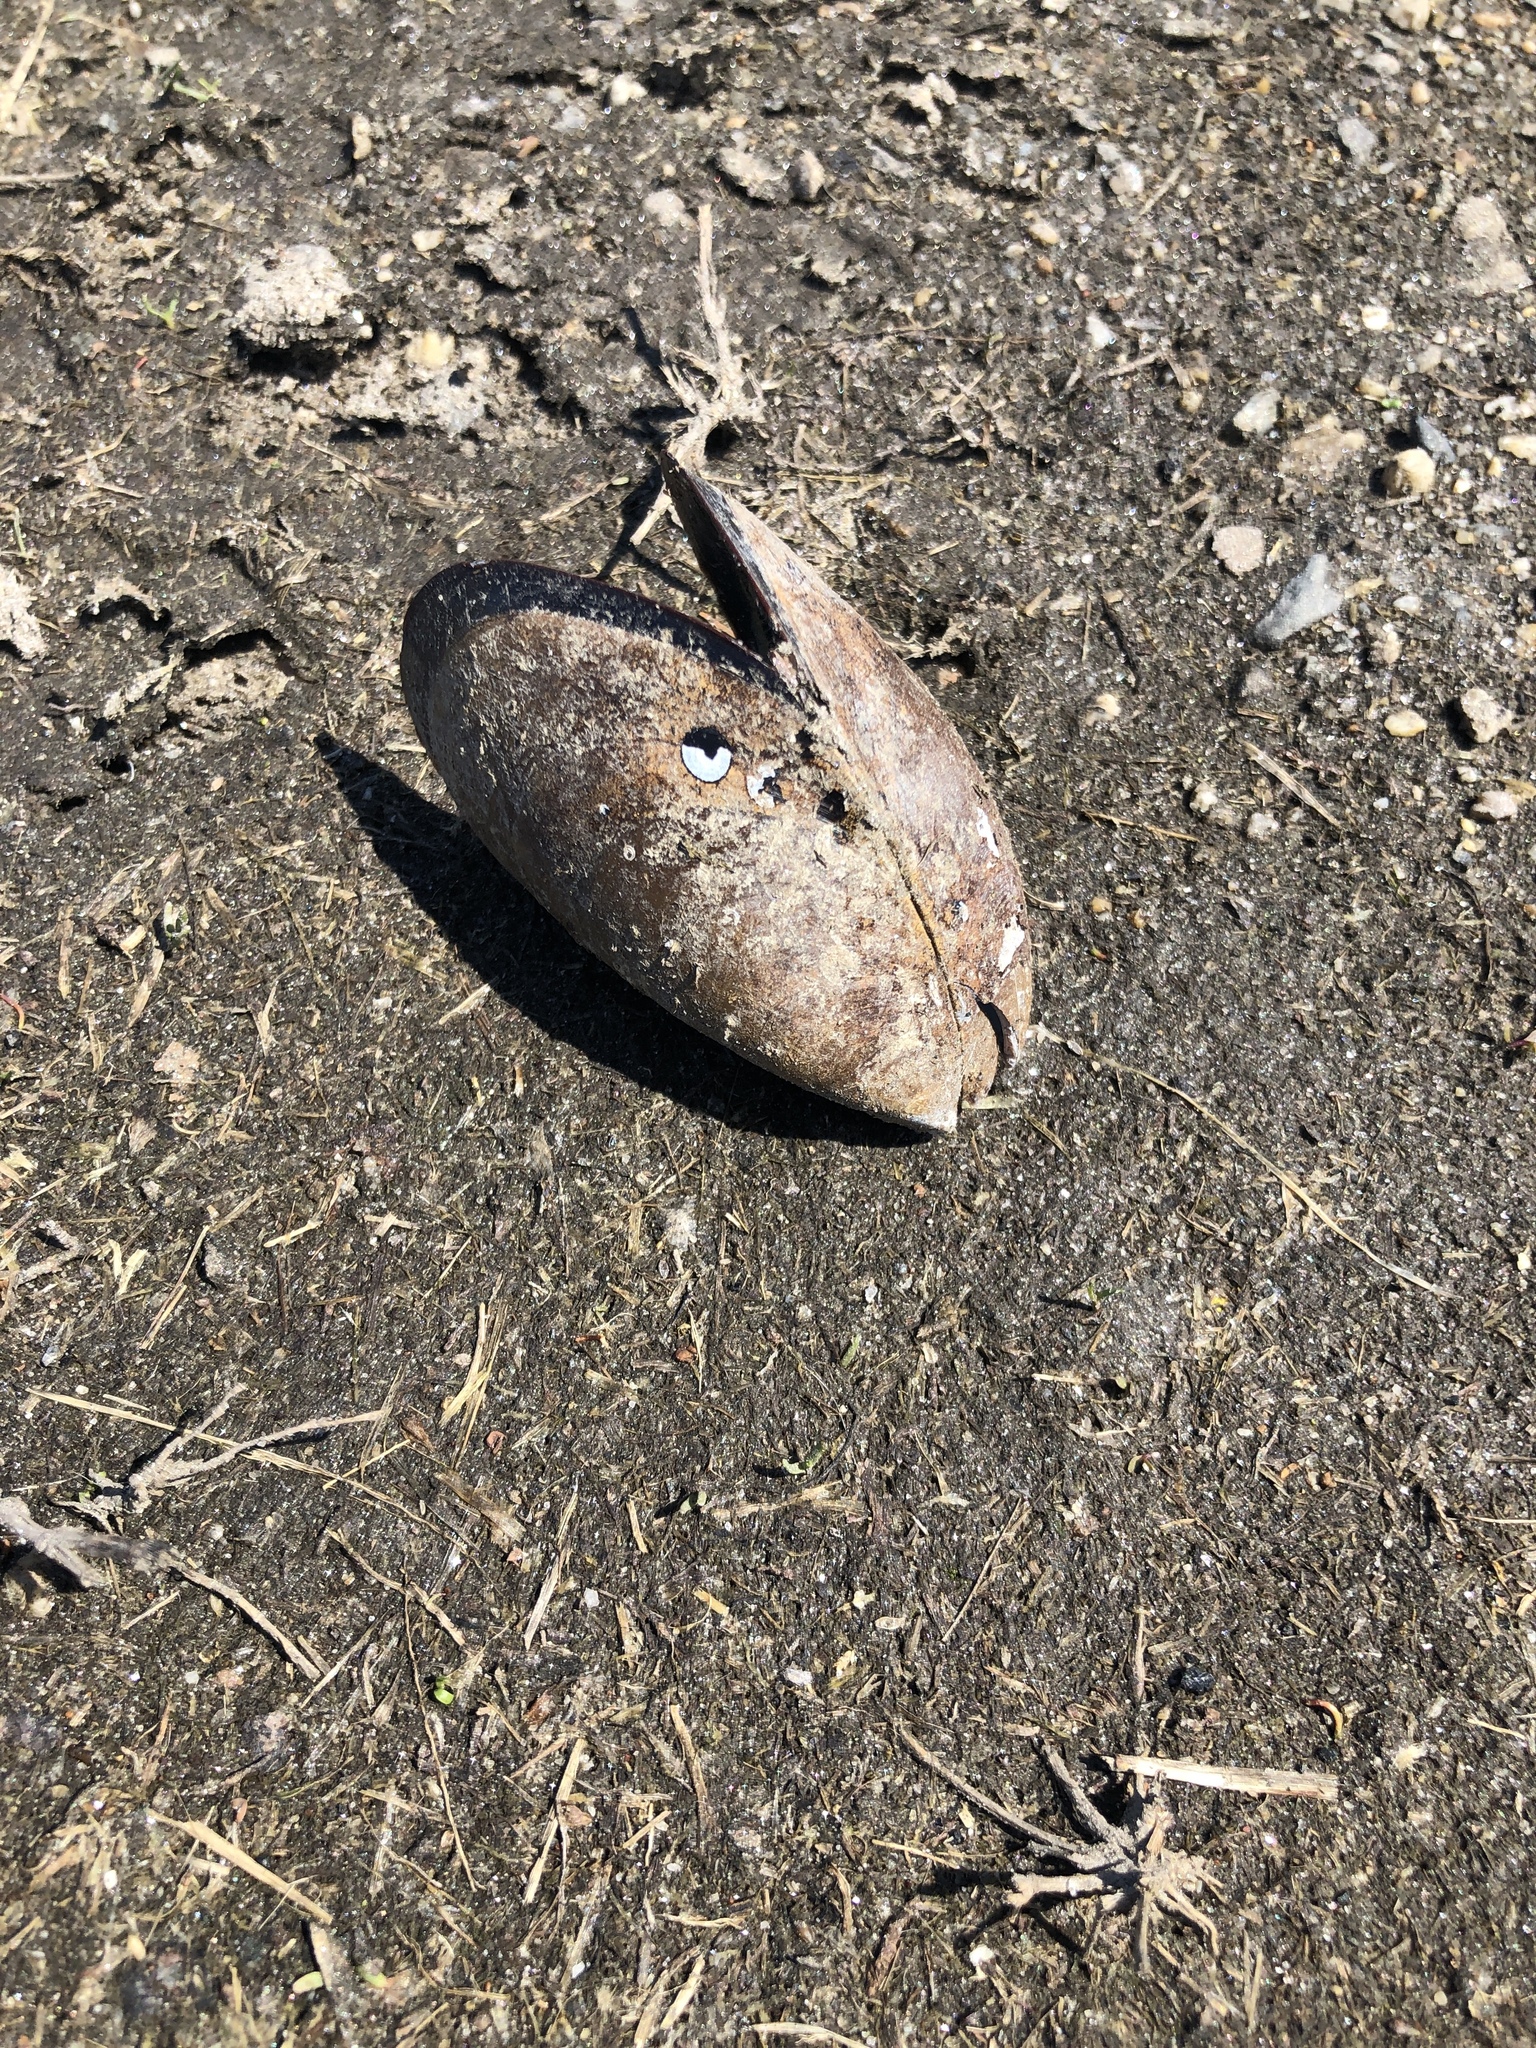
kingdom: Animalia
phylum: Mollusca
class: Bivalvia
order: Mytilida
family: Mytilidae
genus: Mytilus
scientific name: Mytilus edulis
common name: Blue mussel
